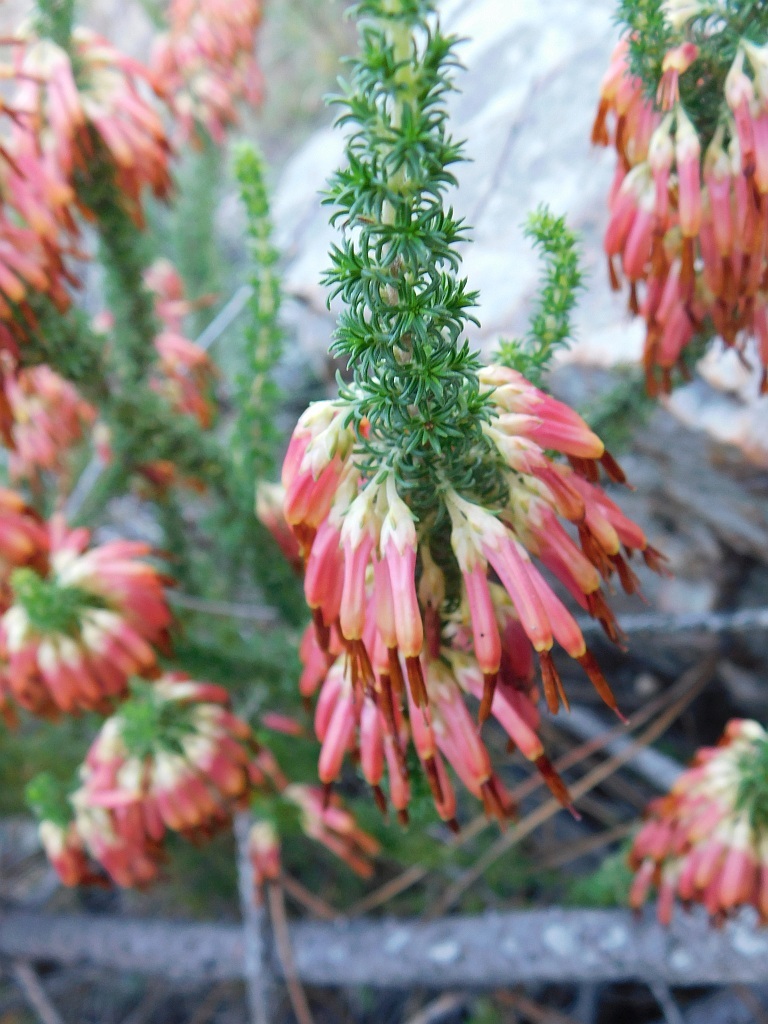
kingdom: Plantae
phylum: Tracheophyta
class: Magnoliopsida
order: Ericales
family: Ericaceae
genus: Erica
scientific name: Erica coccinea
